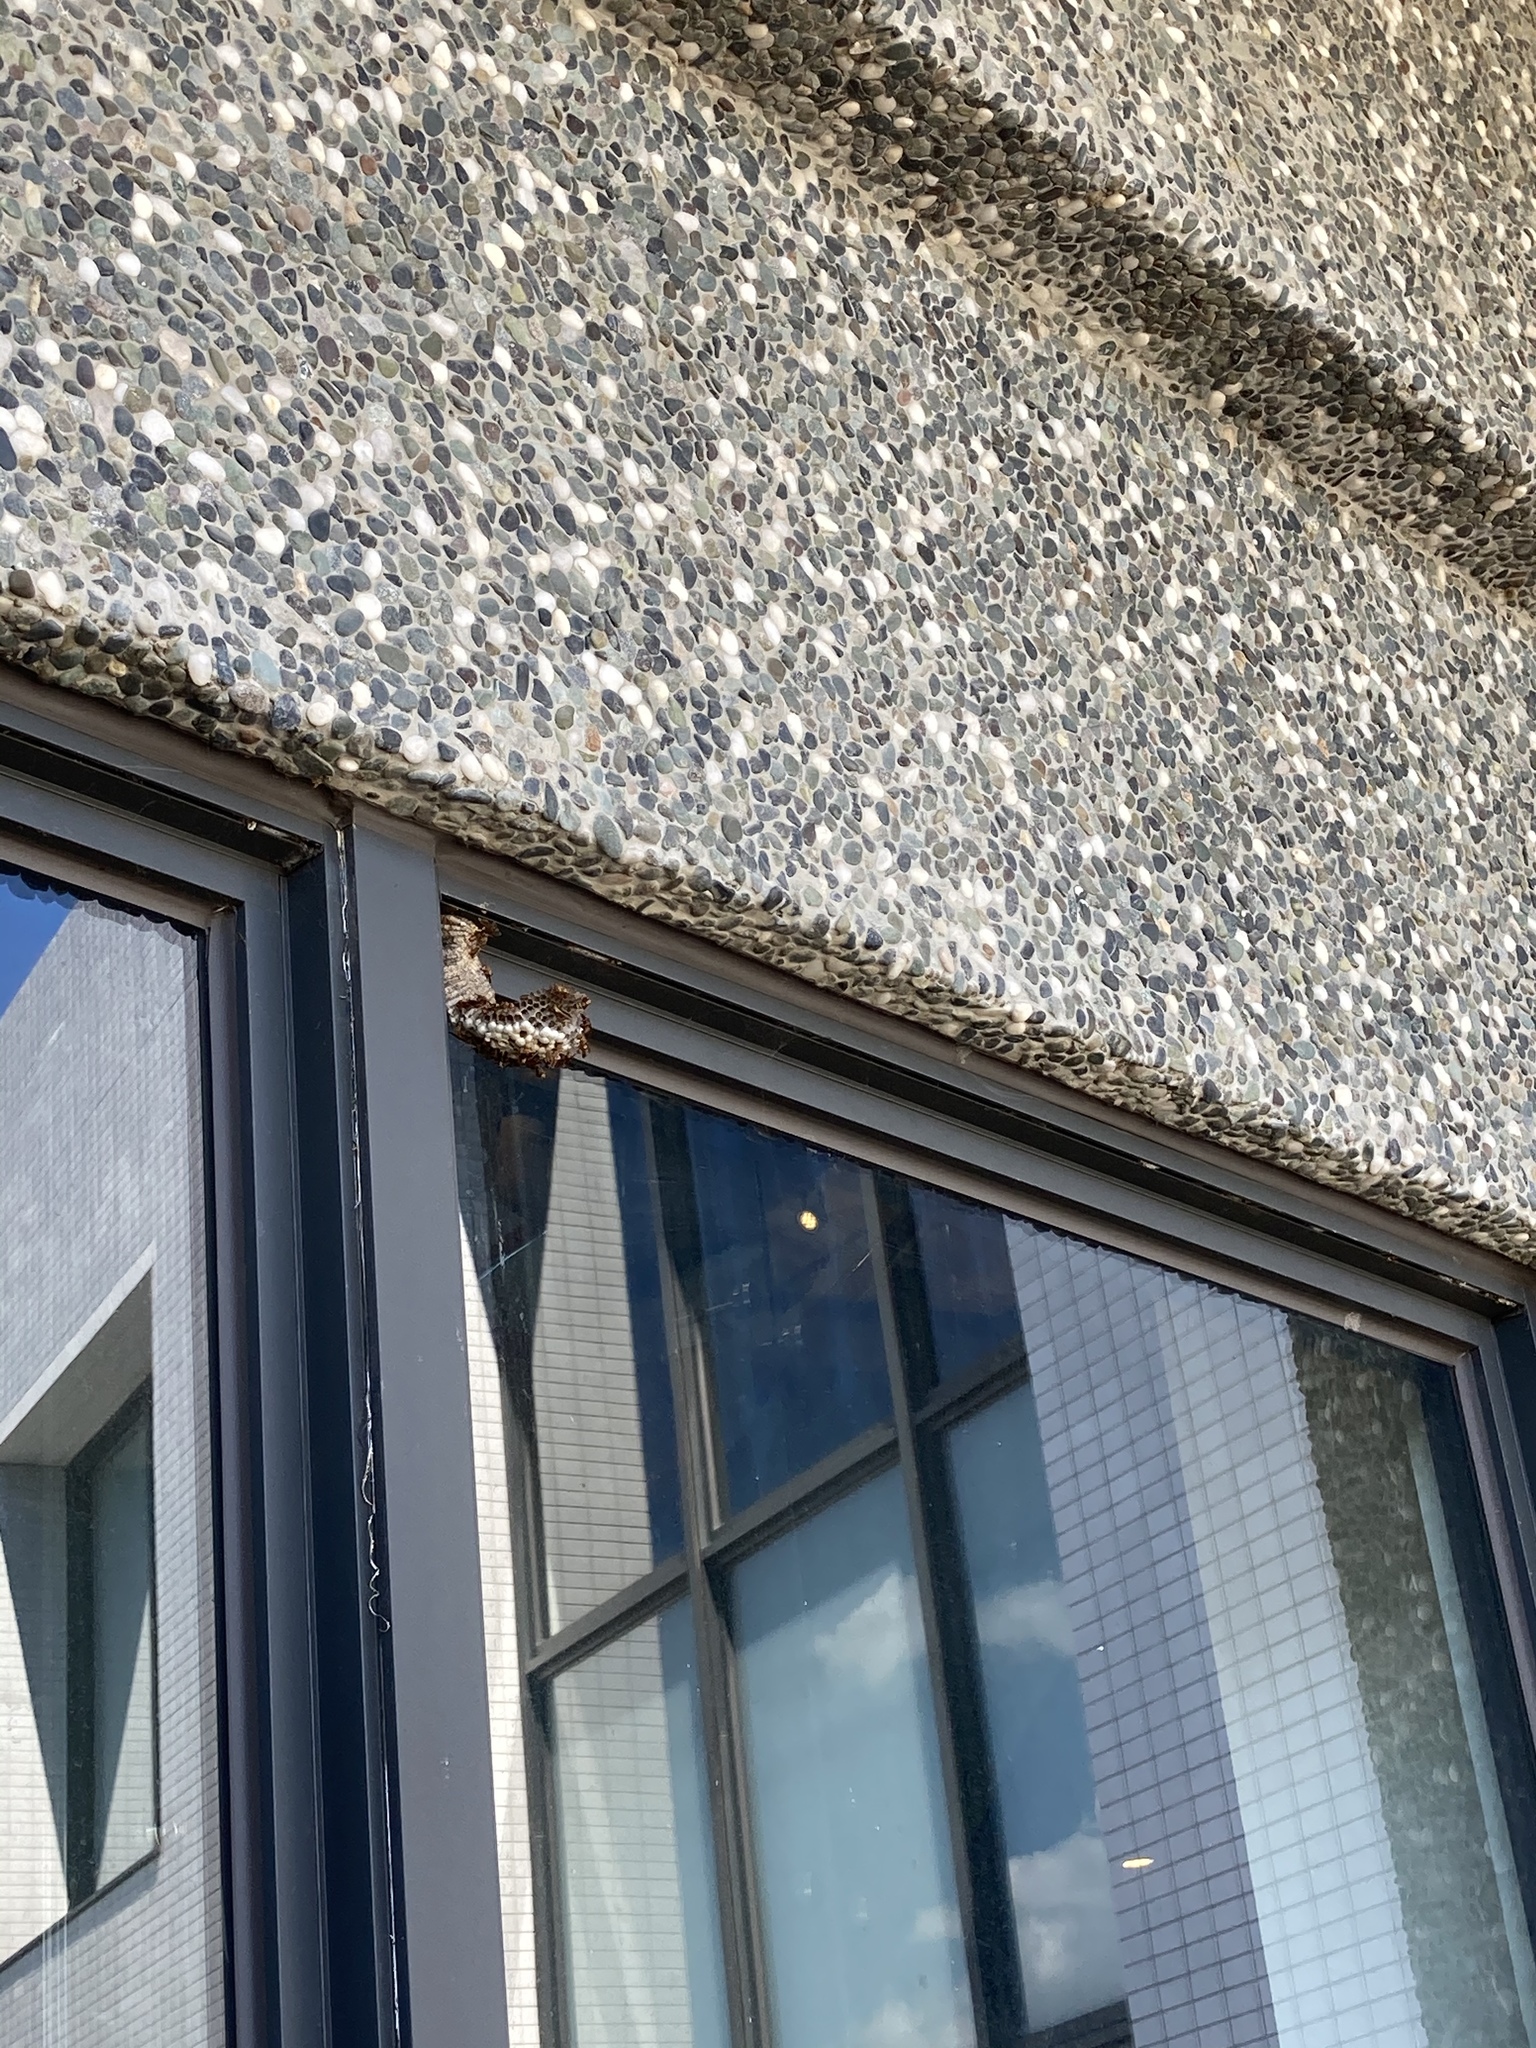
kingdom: Animalia
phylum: Arthropoda
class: Insecta
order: Hymenoptera
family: Eumenidae
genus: Polistes
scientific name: Polistes shirakii
